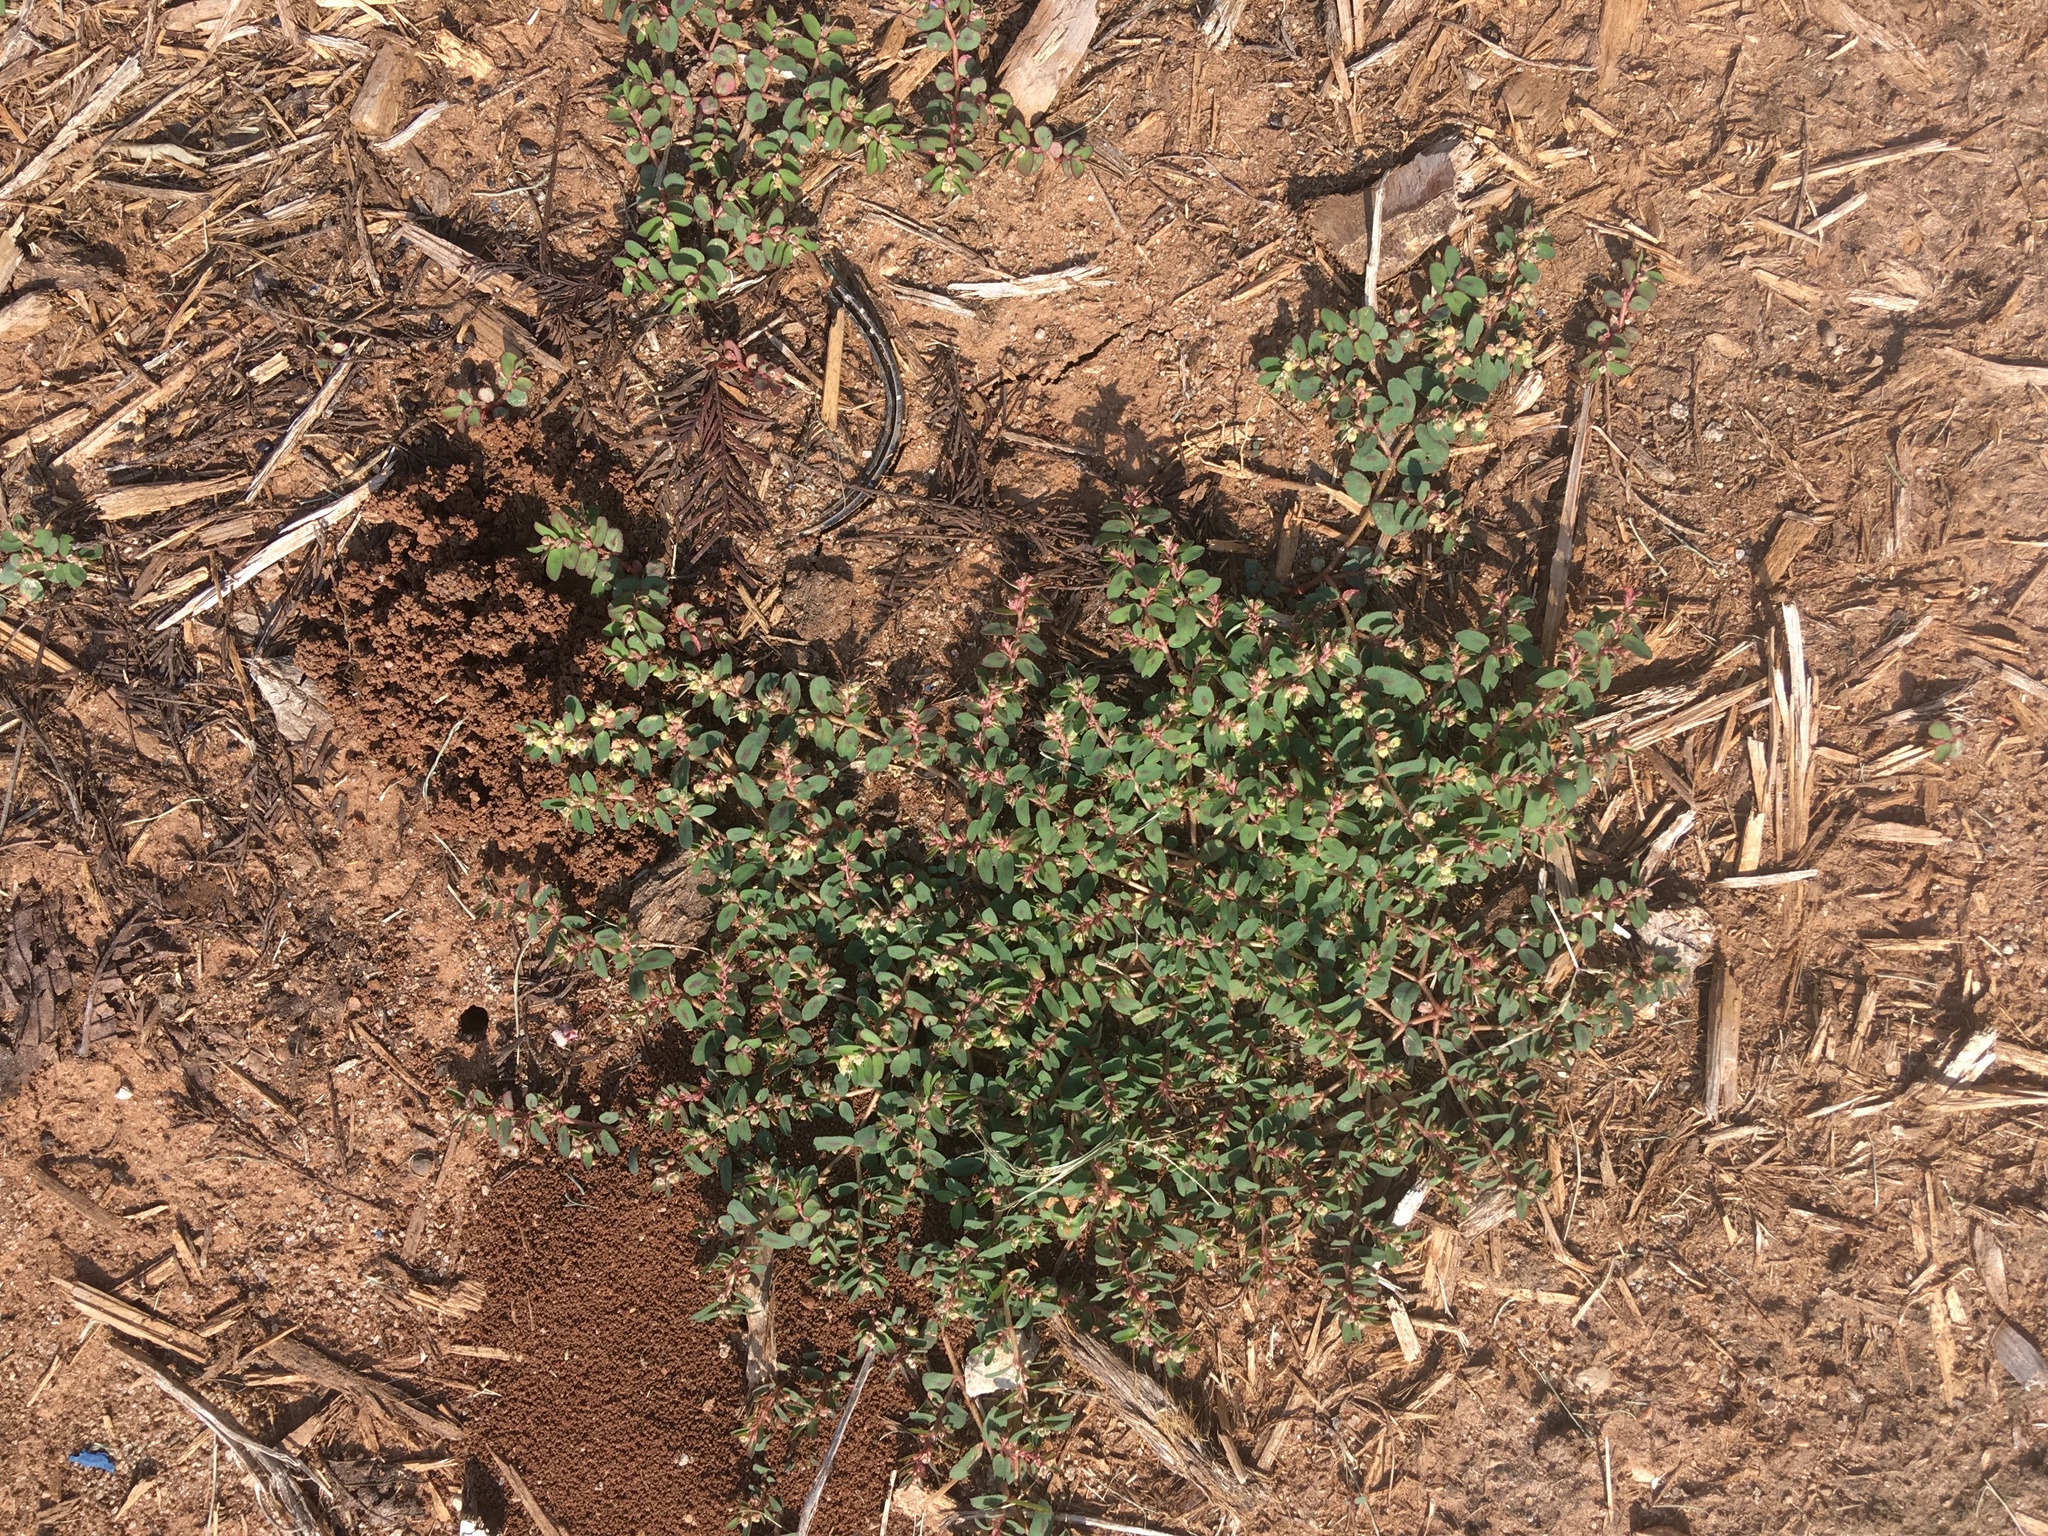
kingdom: Plantae
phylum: Tracheophyta
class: Magnoliopsida
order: Malpighiales
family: Euphorbiaceae
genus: Euphorbia
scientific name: Euphorbia maculata
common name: Spotted spurge
